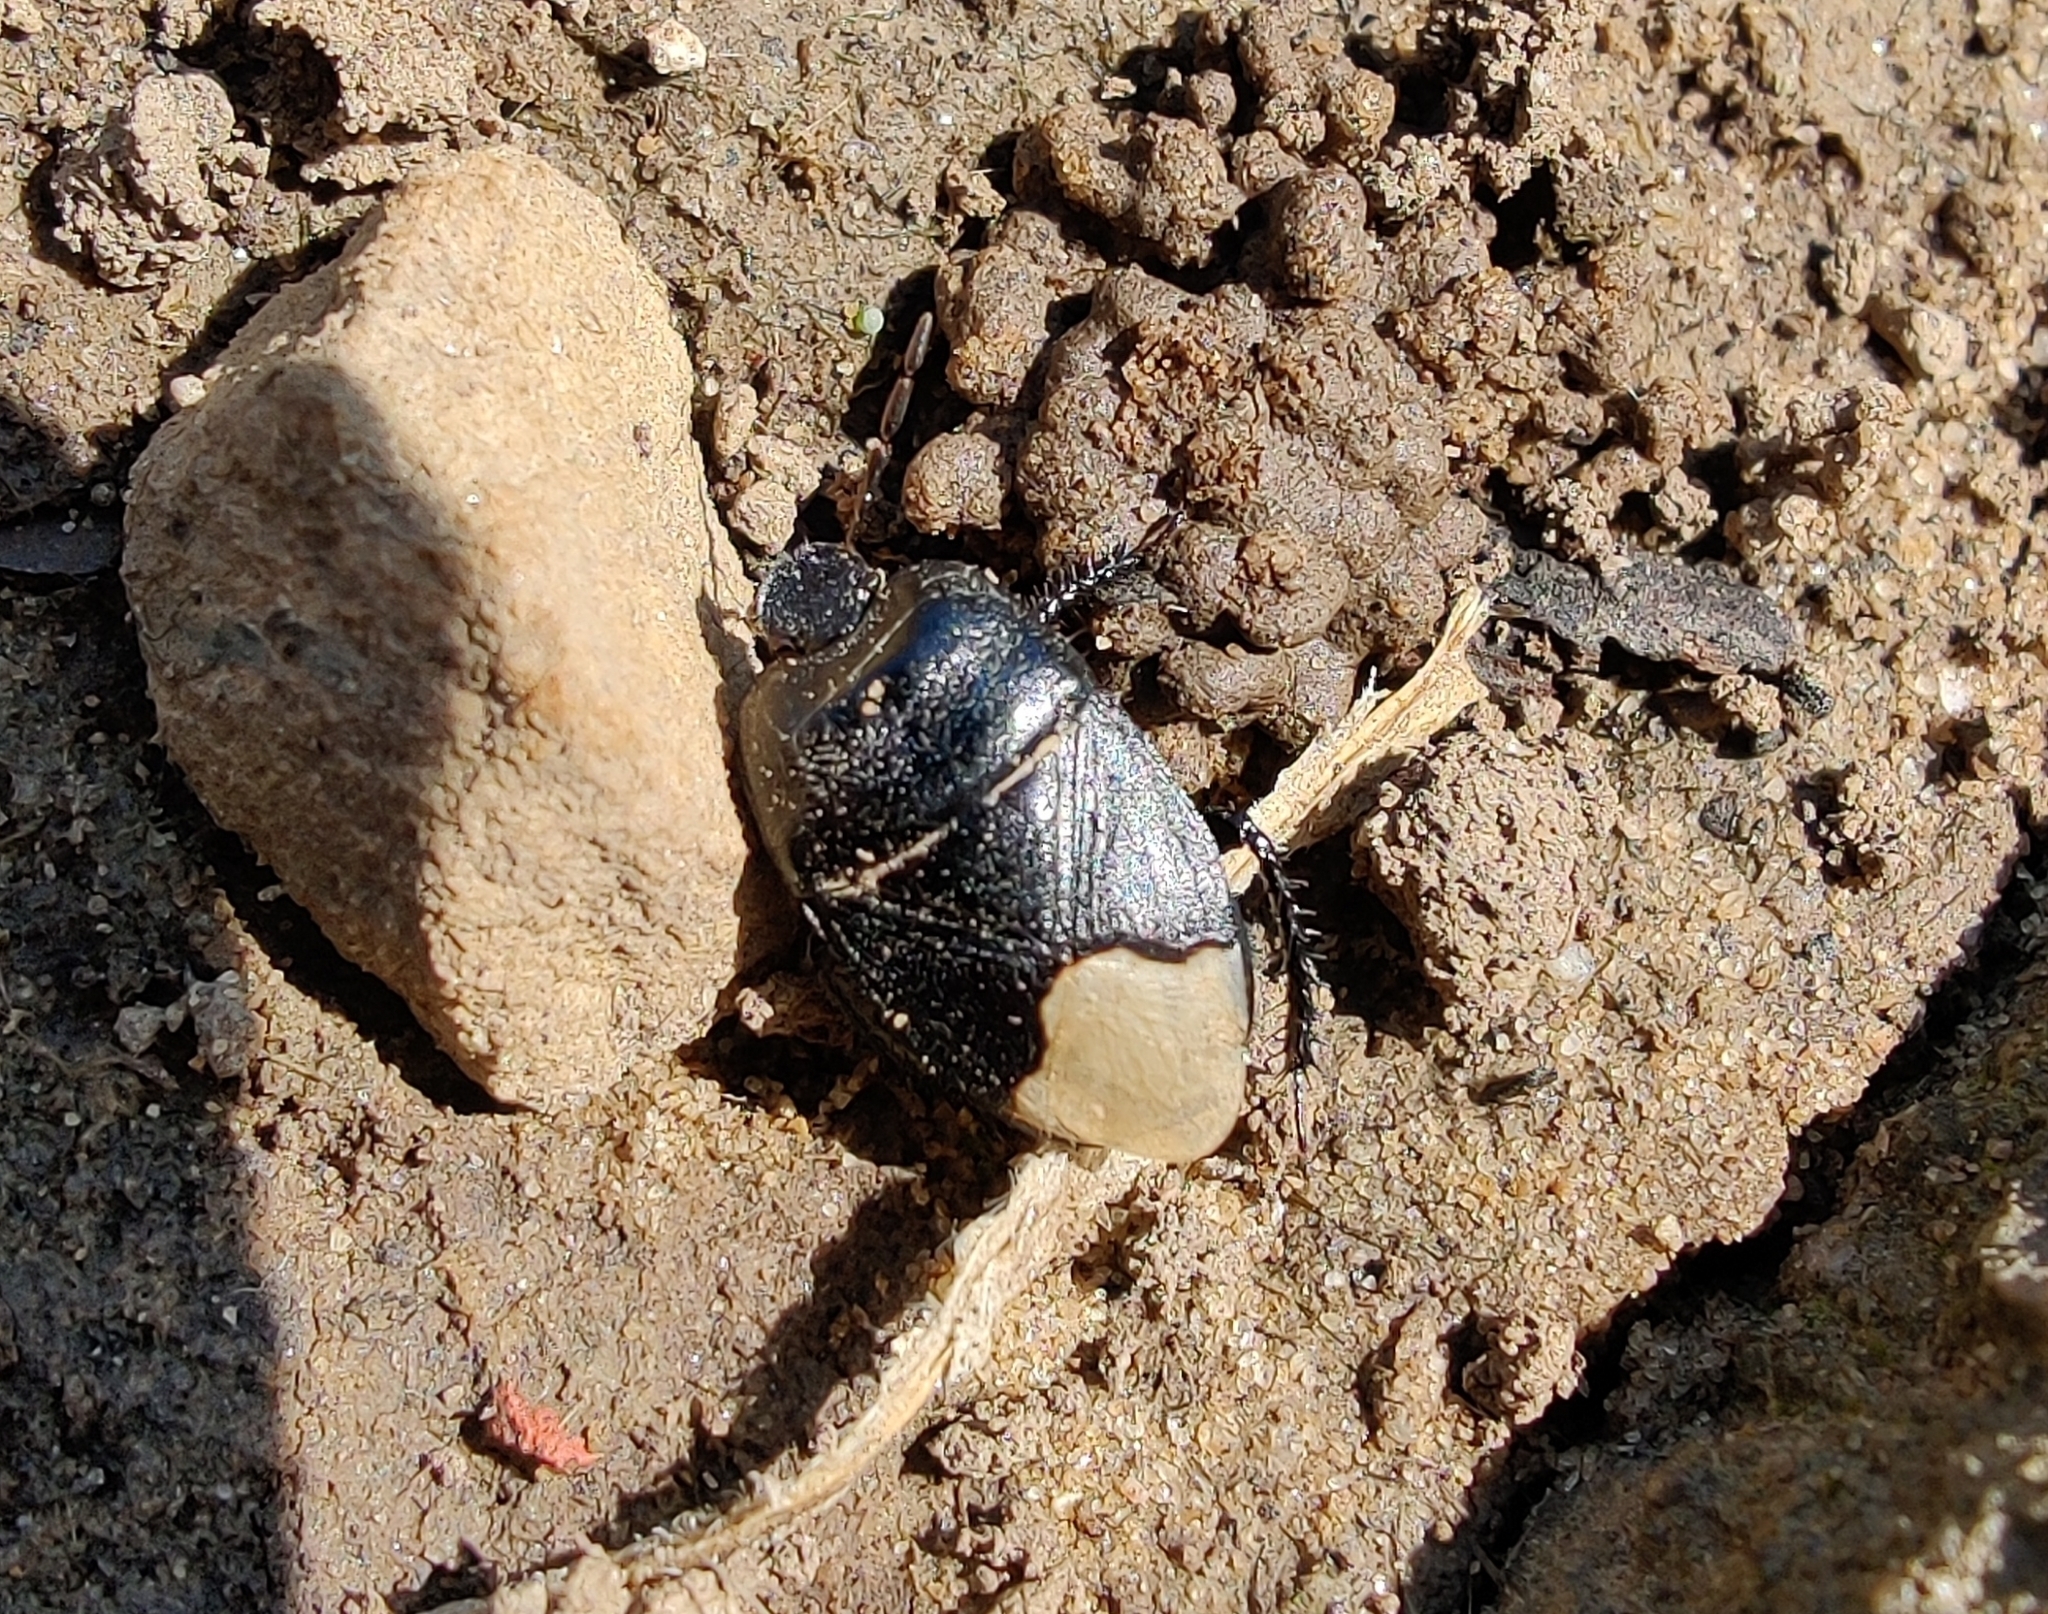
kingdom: Animalia
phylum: Arthropoda
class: Insecta
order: Hemiptera
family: Cydnidae
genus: Cydnus
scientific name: Cydnus aterrimus
